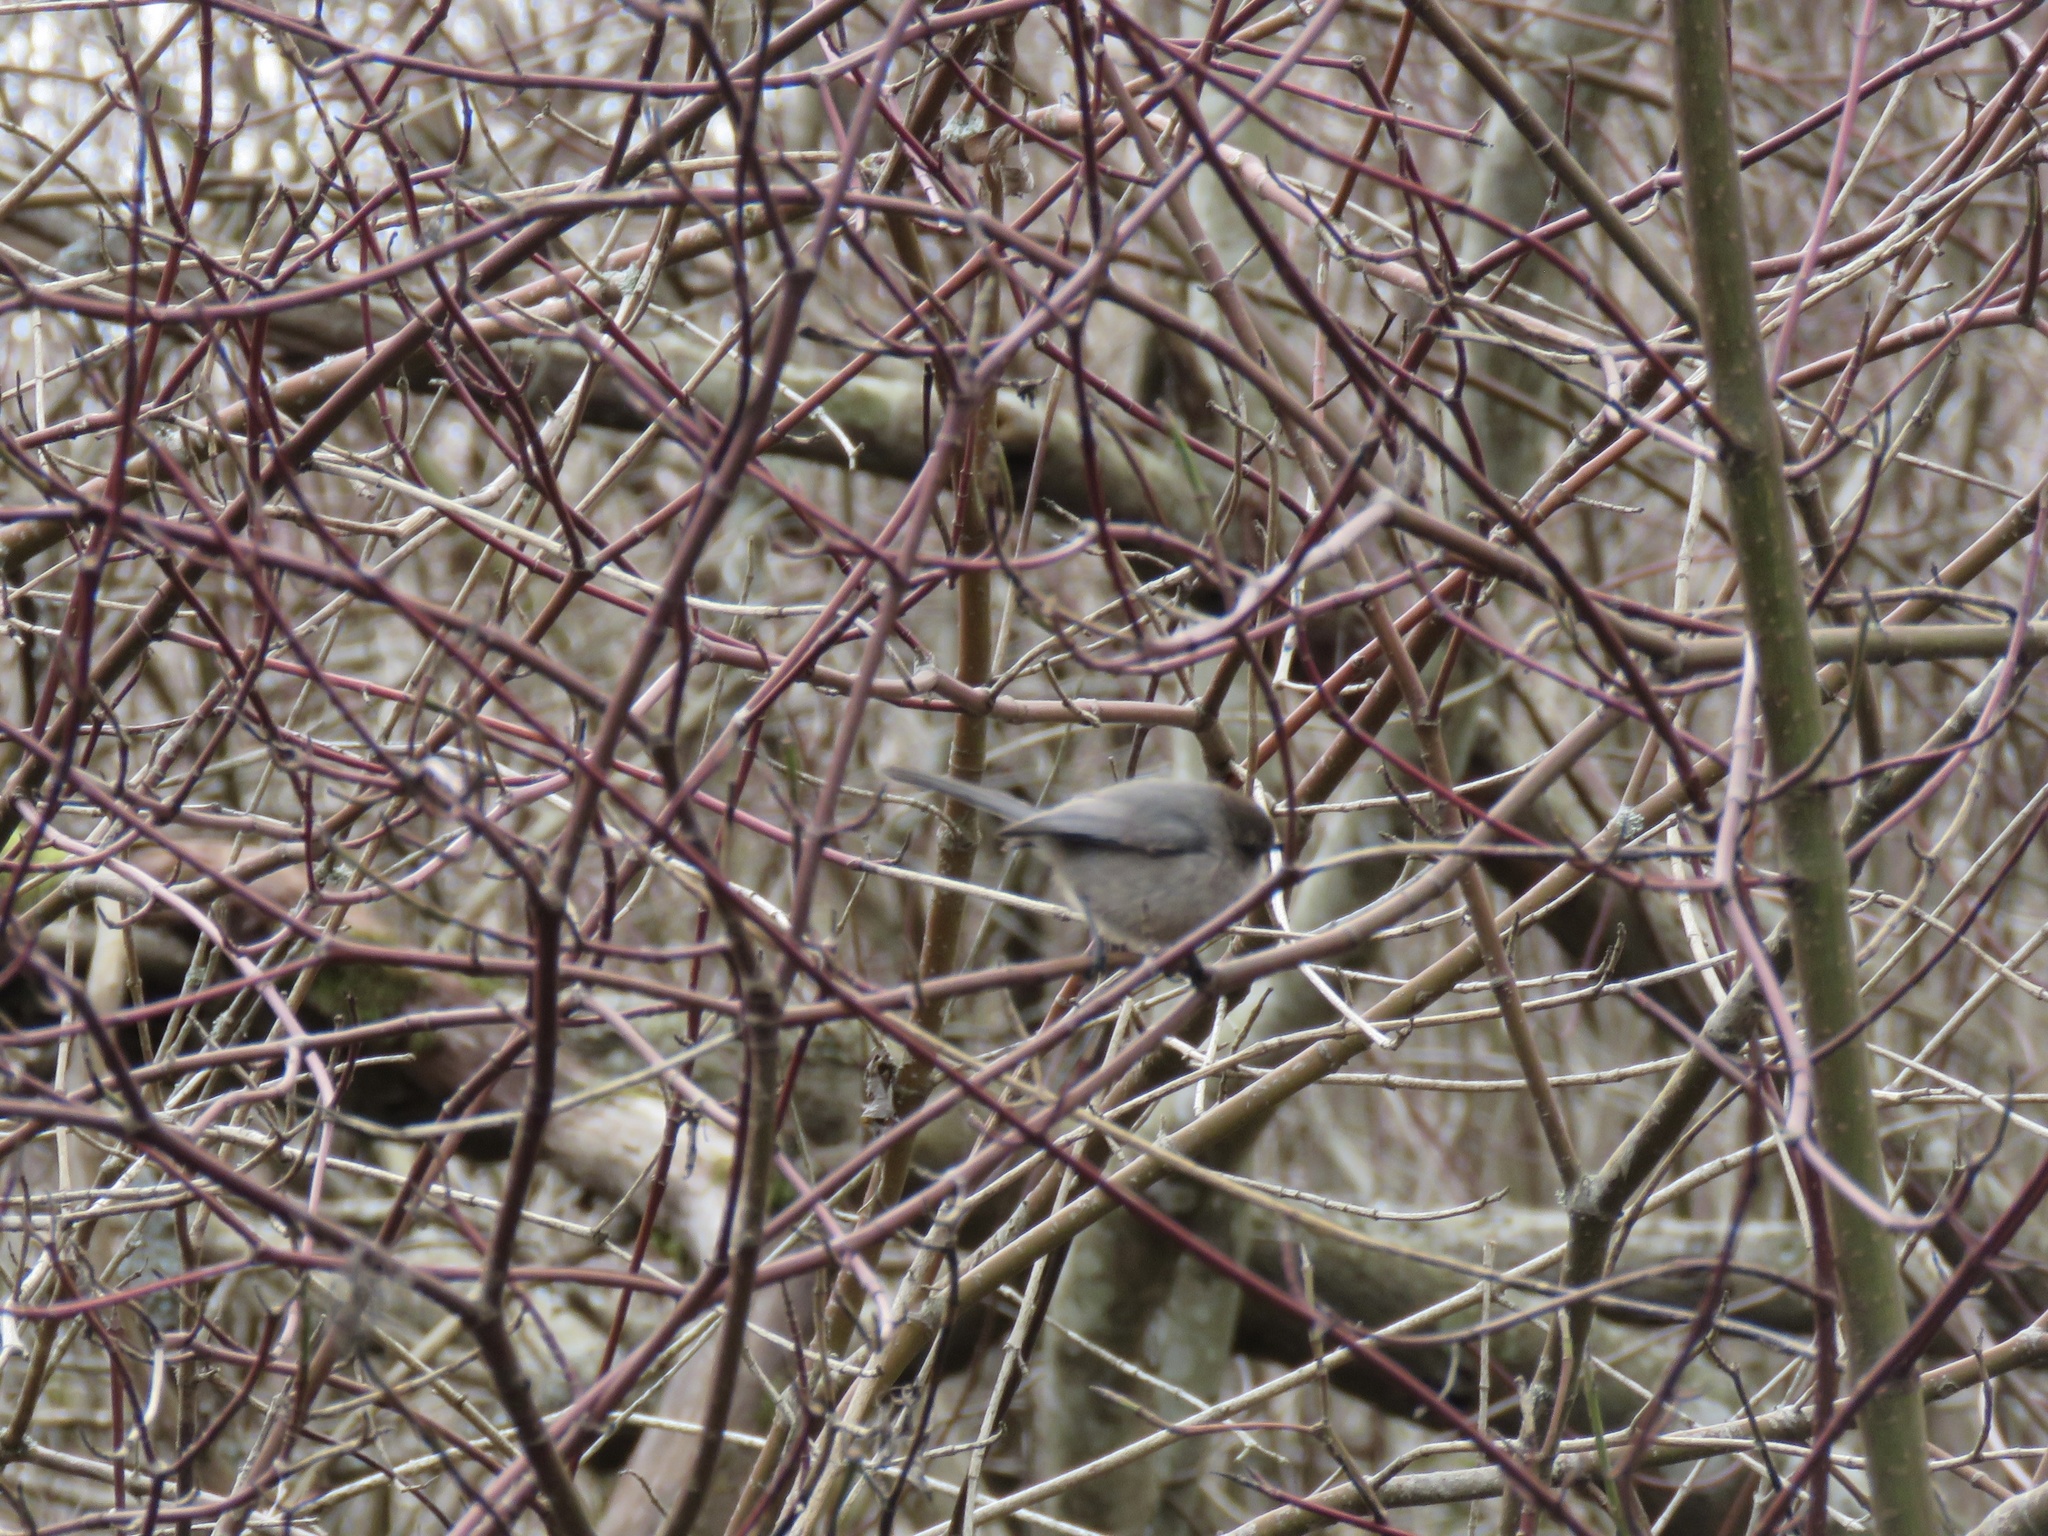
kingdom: Animalia
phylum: Chordata
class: Aves
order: Passeriformes
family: Aegithalidae
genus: Psaltriparus
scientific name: Psaltriparus minimus
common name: American bushtit
